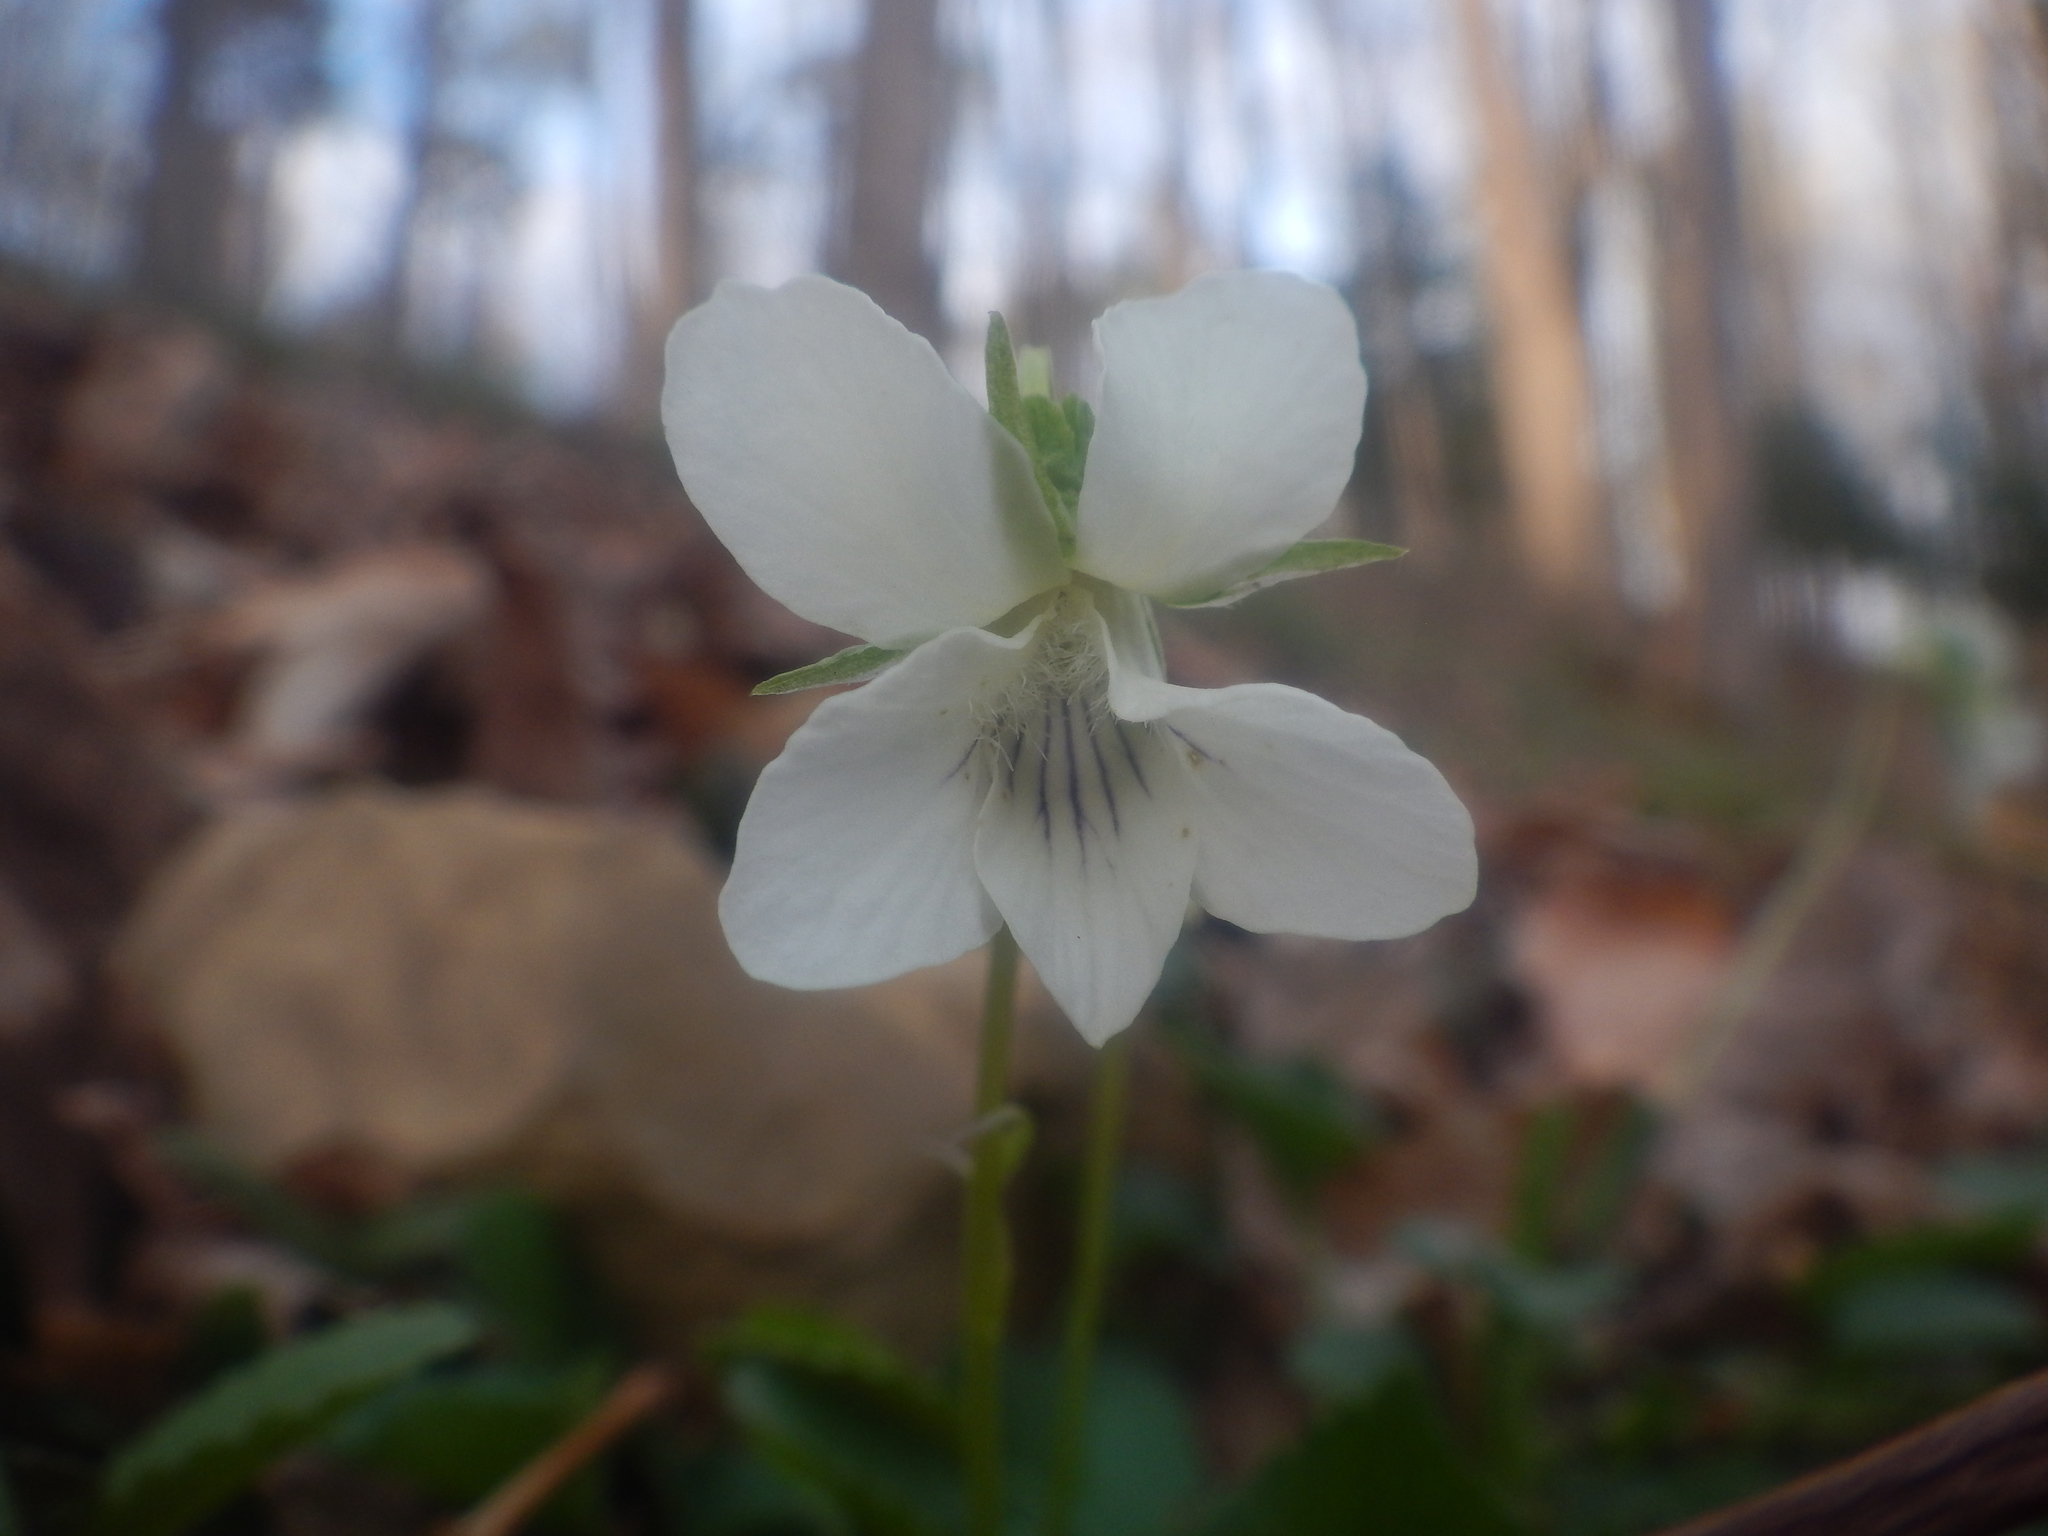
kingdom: Plantae
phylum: Tracheophyta
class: Magnoliopsida
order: Malpighiales
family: Violaceae
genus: Viola
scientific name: Viola striata
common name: Cream violet
